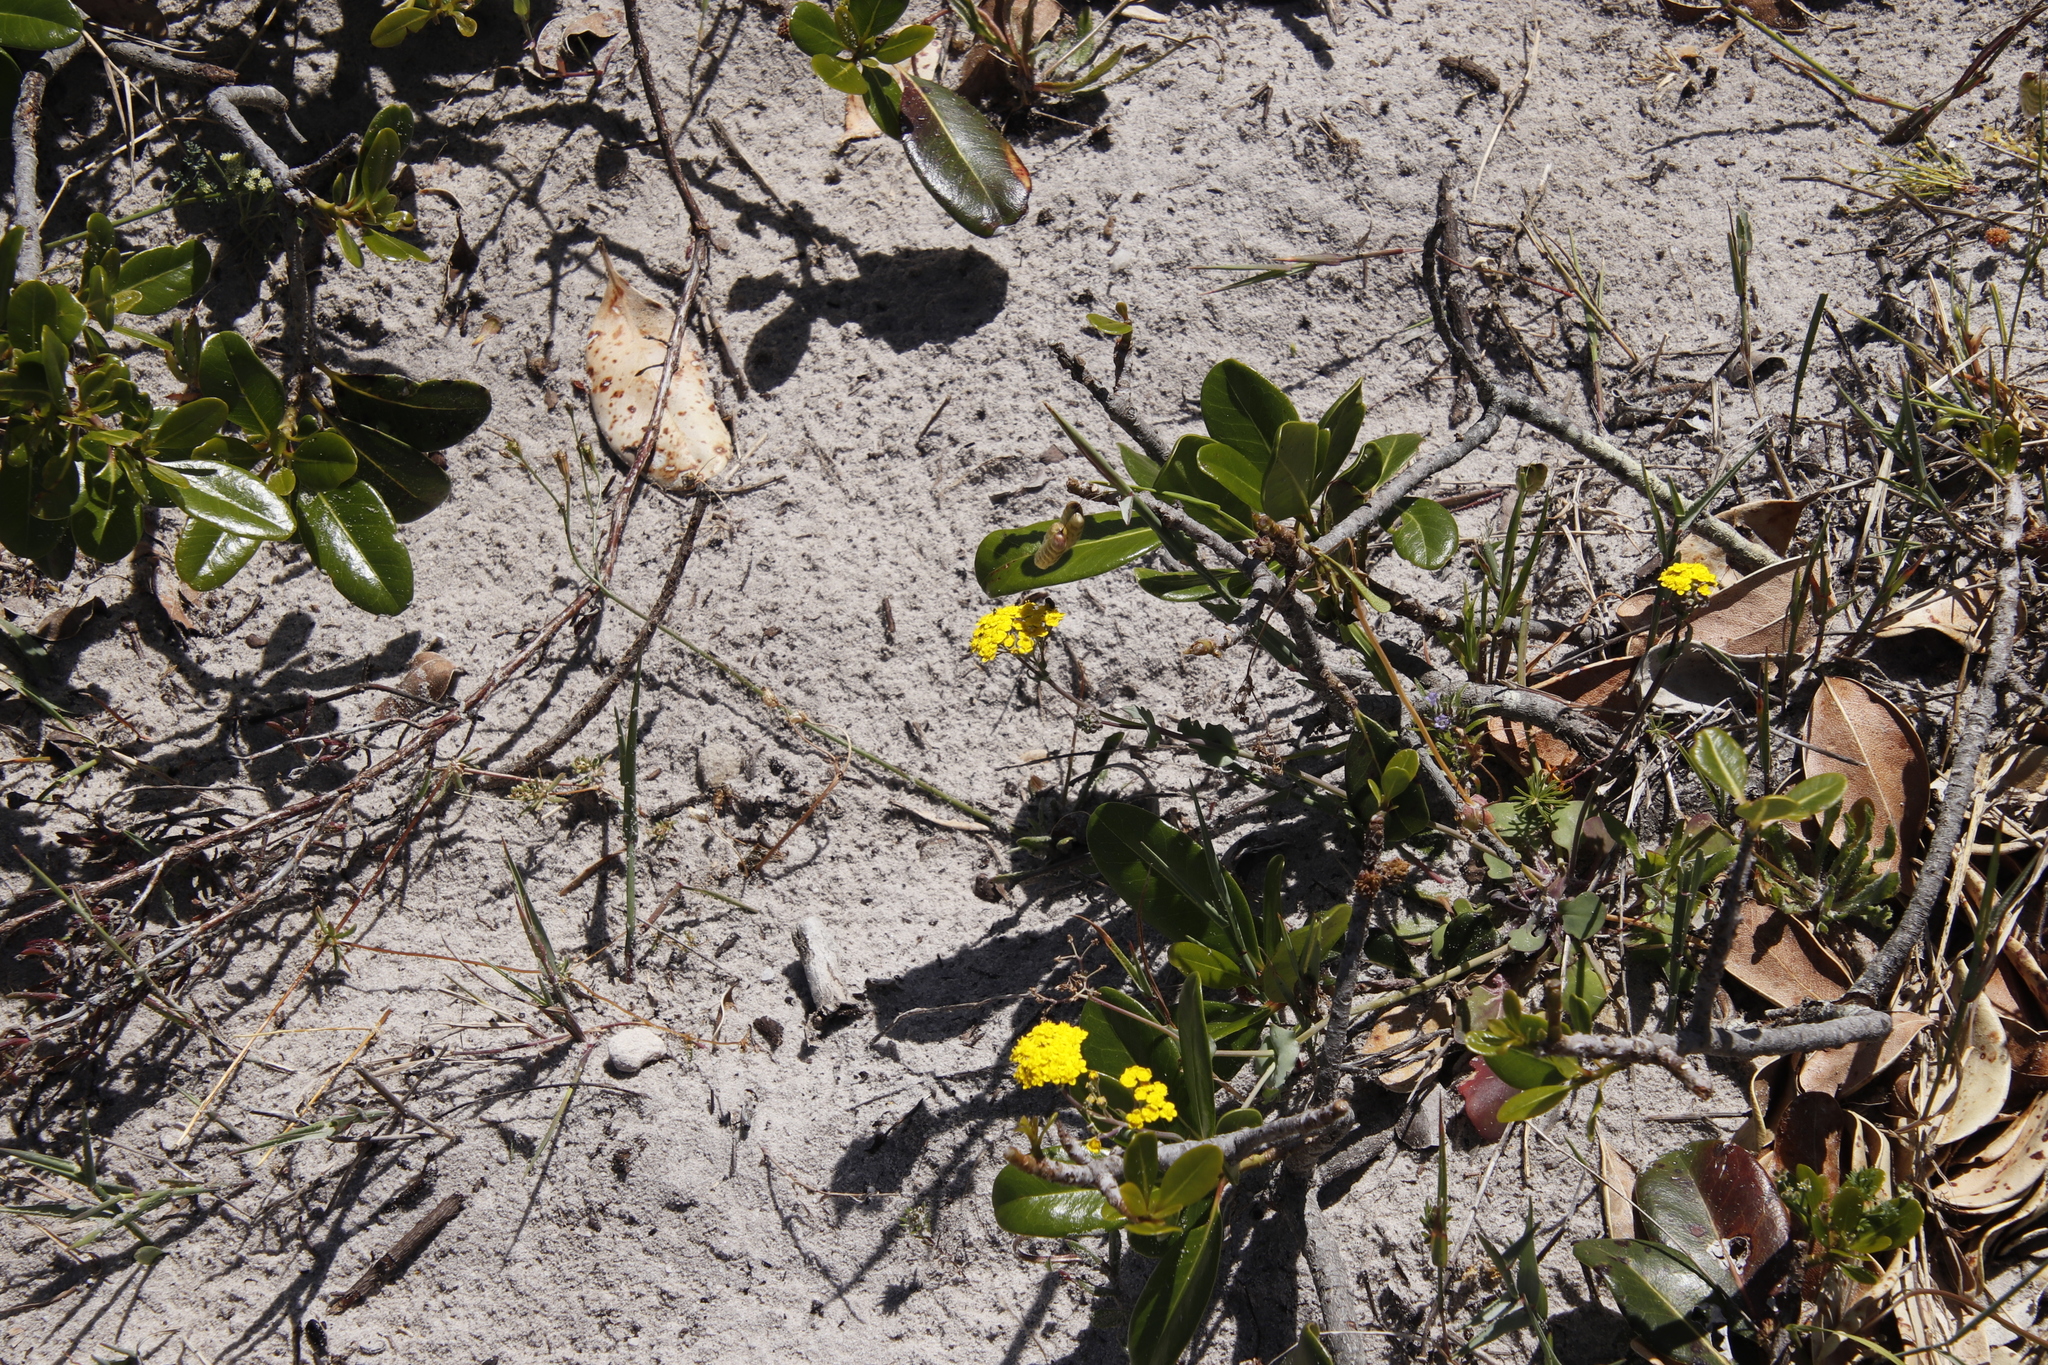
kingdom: Plantae
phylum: Tracheophyta
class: Magnoliopsida
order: Asterales
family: Asteraceae
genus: Gymnodiscus
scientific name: Gymnodiscus capillaris
